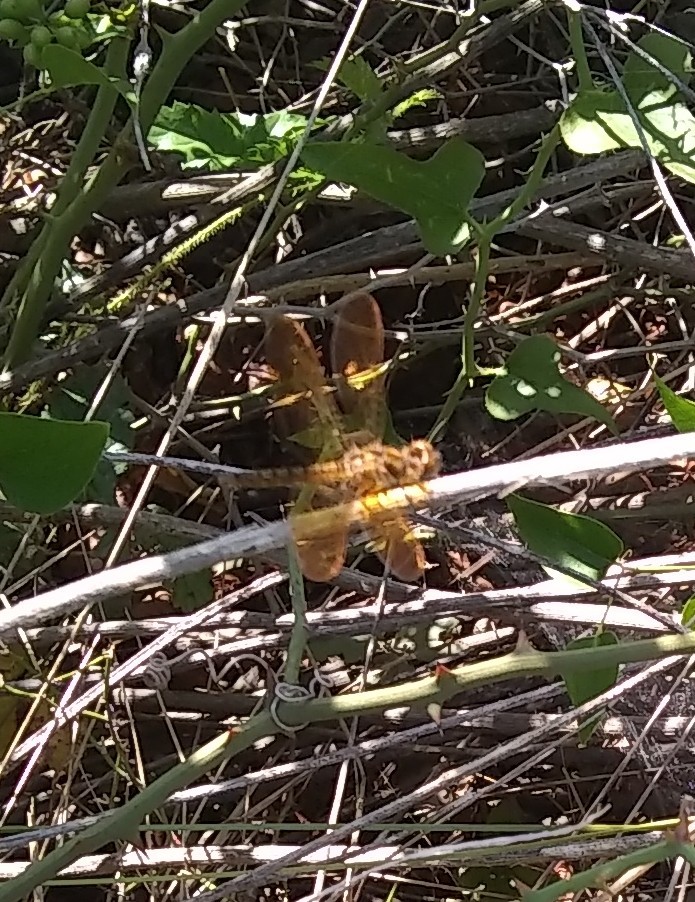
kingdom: Animalia
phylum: Arthropoda
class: Insecta
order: Odonata
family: Libellulidae
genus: Perithemis
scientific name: Perithemis tenera
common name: Eastern amberwing
